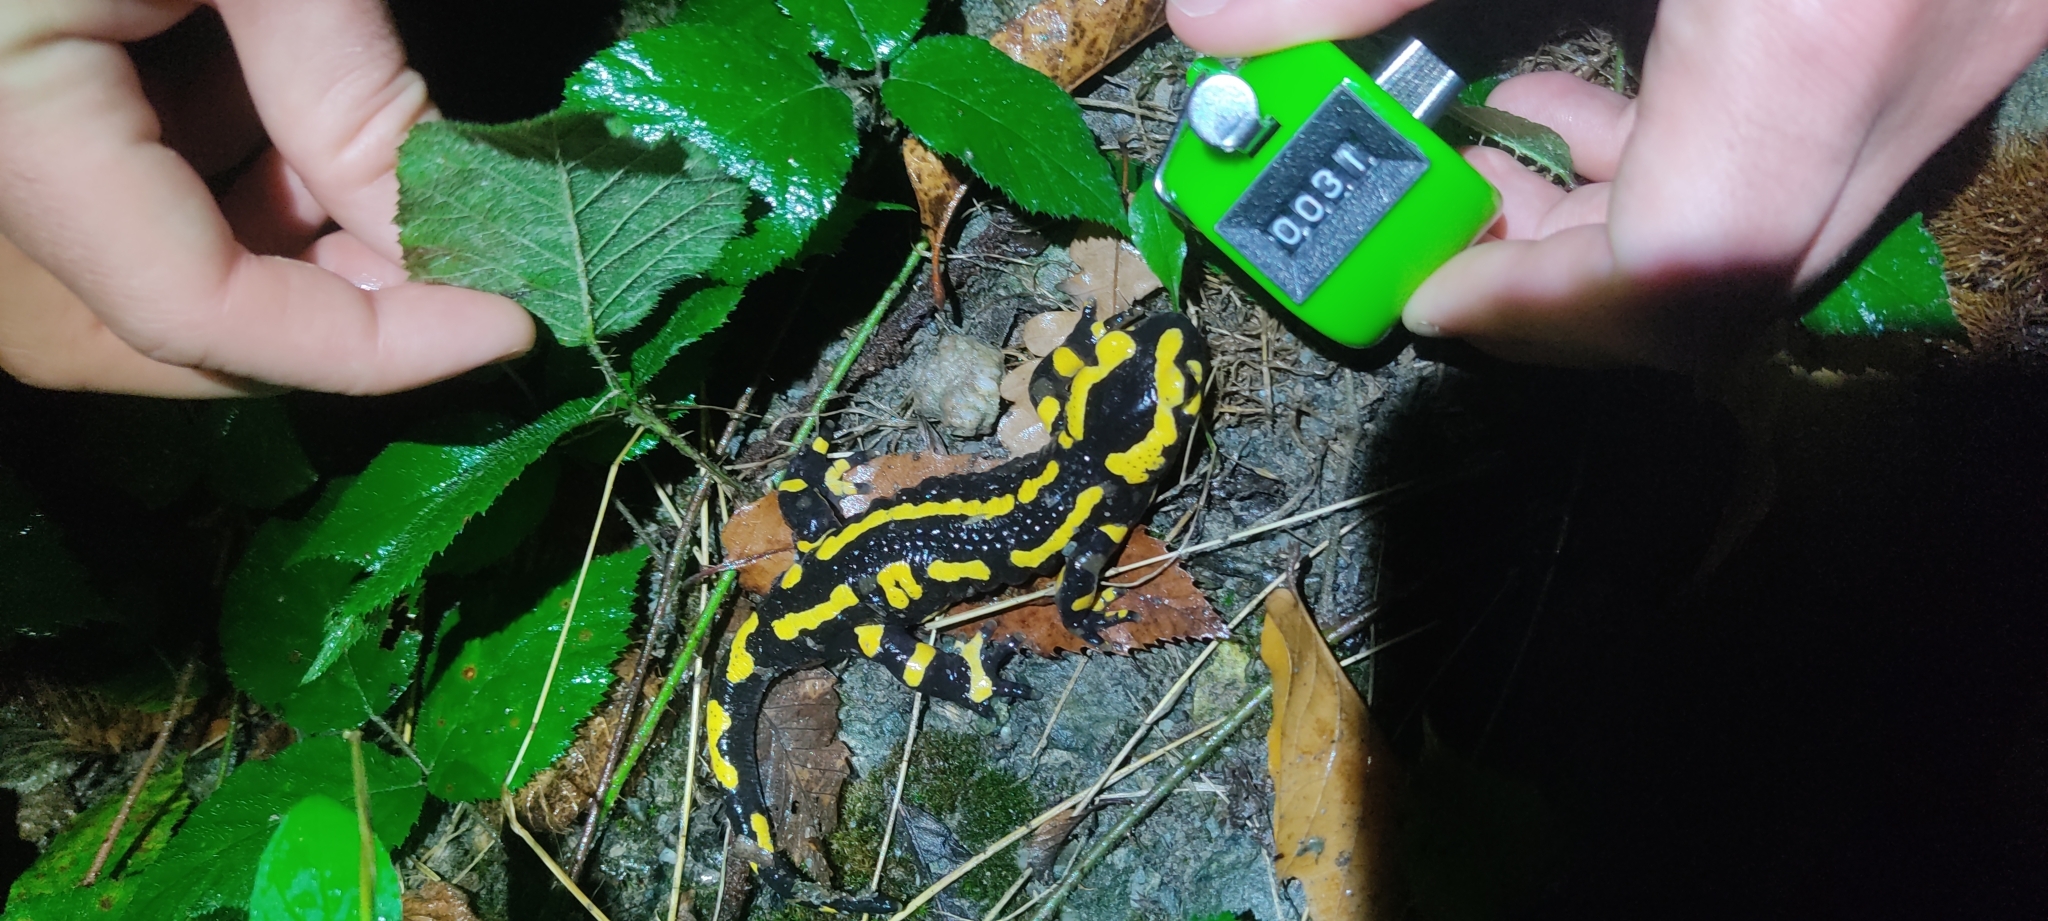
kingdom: Animalia
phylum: Chordata
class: Amphibia
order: Caudata
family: Salamandridae
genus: Salamandra
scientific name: Salamandra salamandra
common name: Fire salamander
